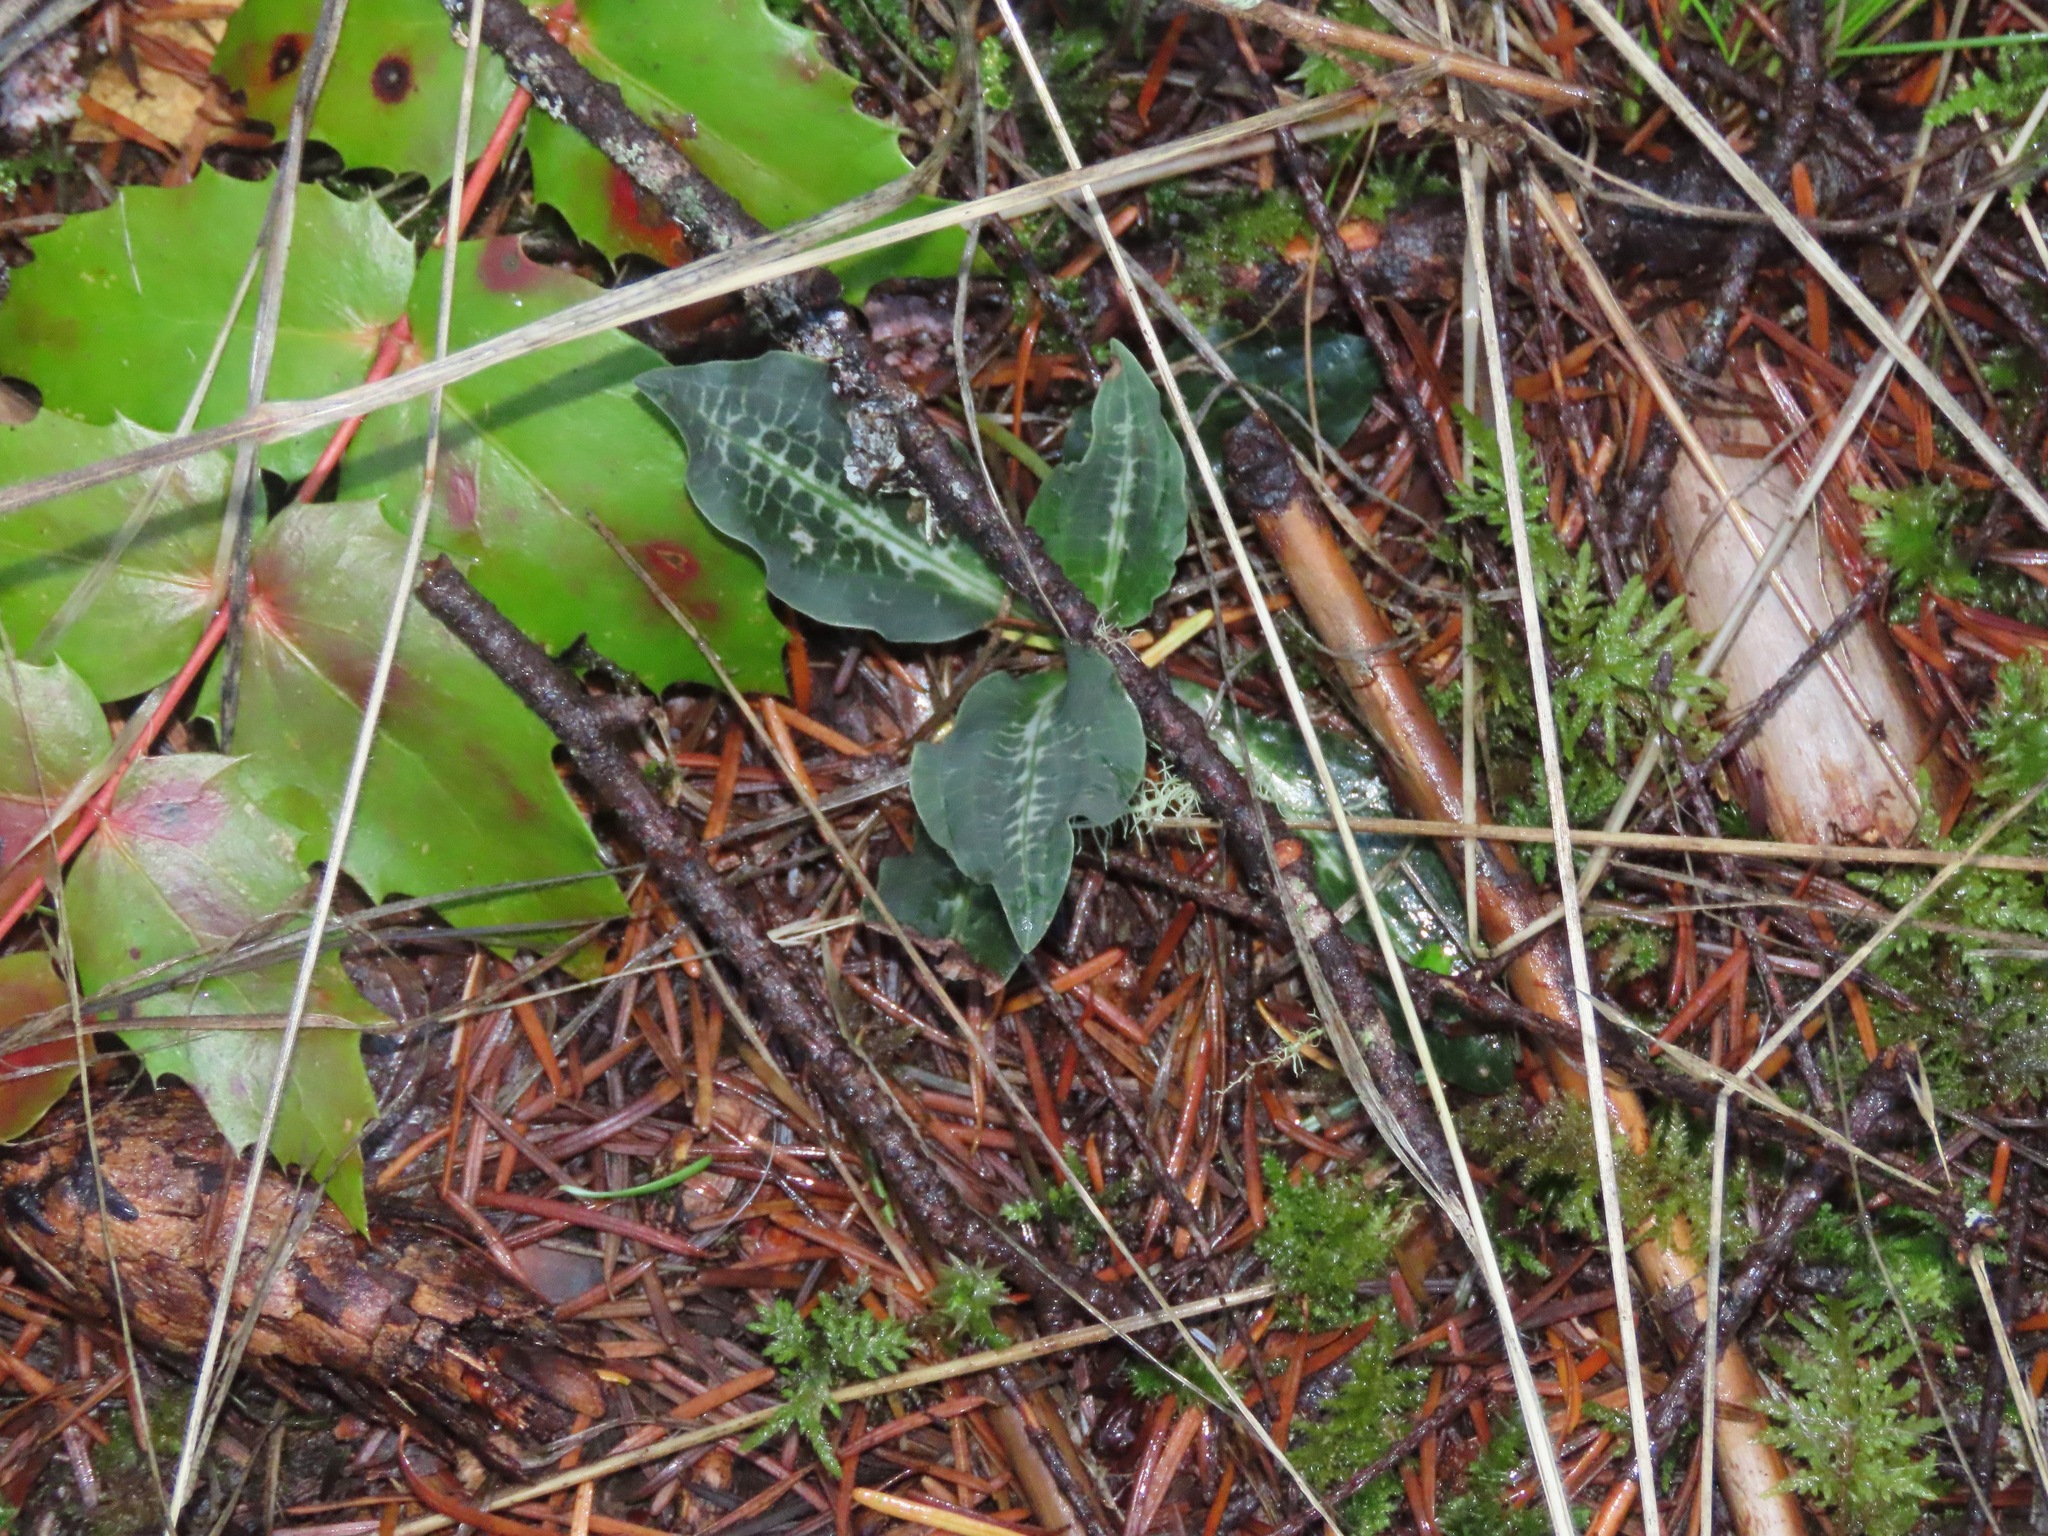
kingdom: Plantae
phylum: Tracheophyta
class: Liliopsida
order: Asparagales
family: Orchidaceae
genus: Goodyera
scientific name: Goodyera oblongifolia
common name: Giant rattlesnake-plantain
